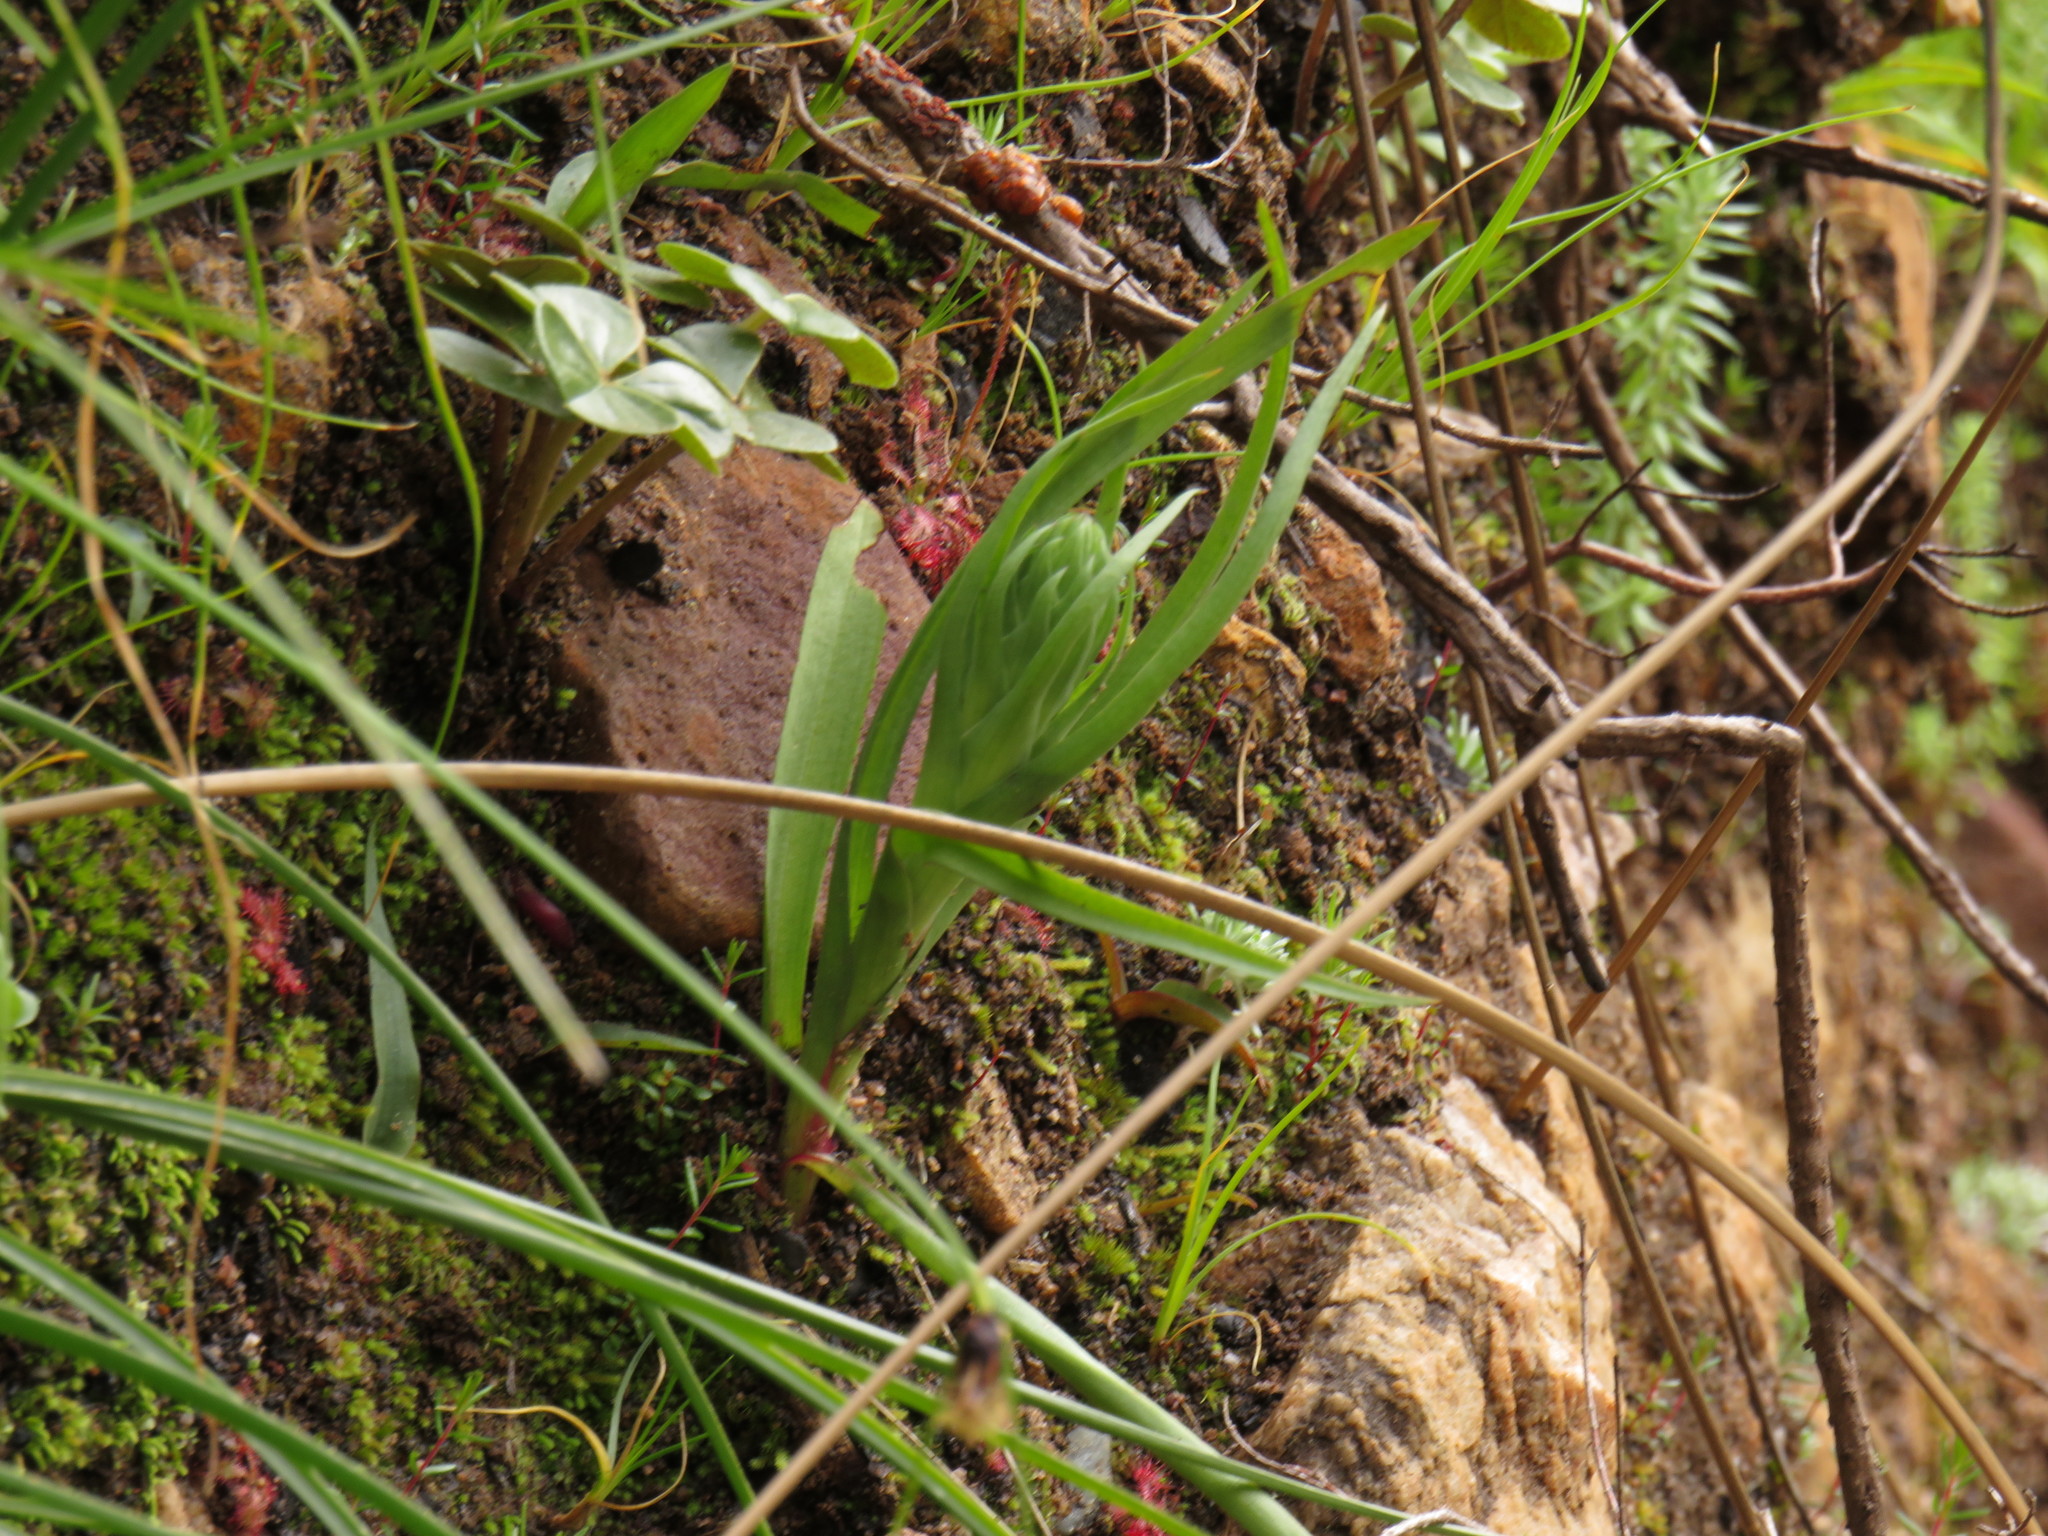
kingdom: Plantae
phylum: Tracheophyta
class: Liliopsida
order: Asparagales
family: Orchidaceae
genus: Disa
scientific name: Disa bracteata
